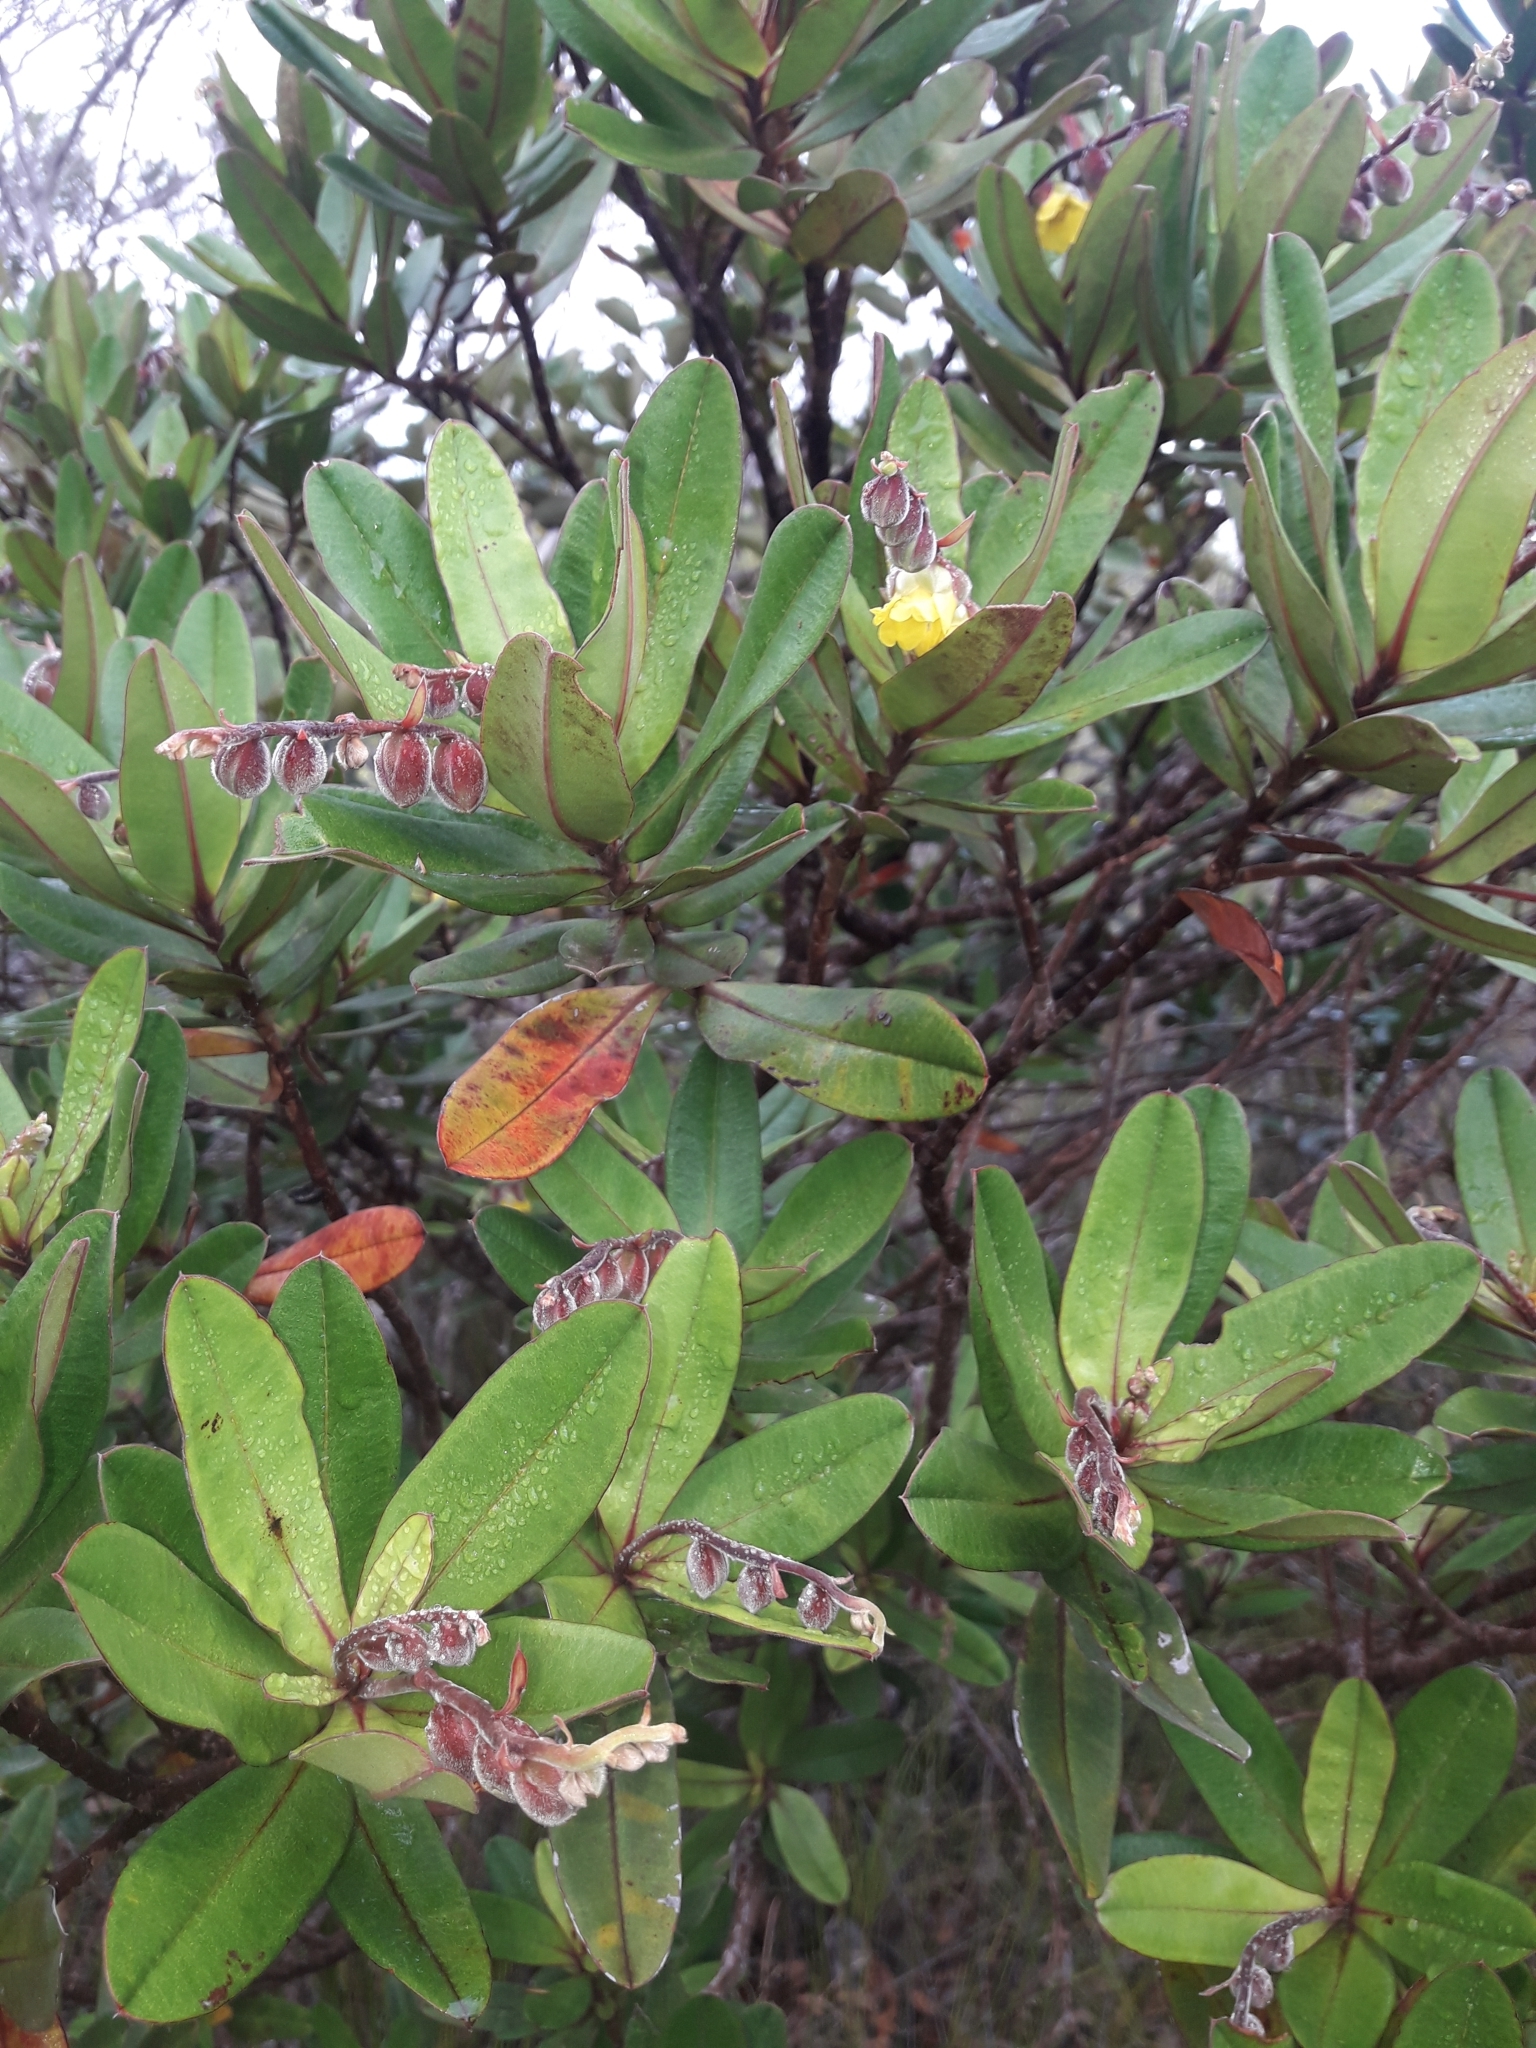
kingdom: Plantae
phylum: Tracheophyta
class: Magnoliopsida
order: Dilleniales
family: Dilleniaceae
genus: Hibbertia
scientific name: Hibbertia trachyphylla
